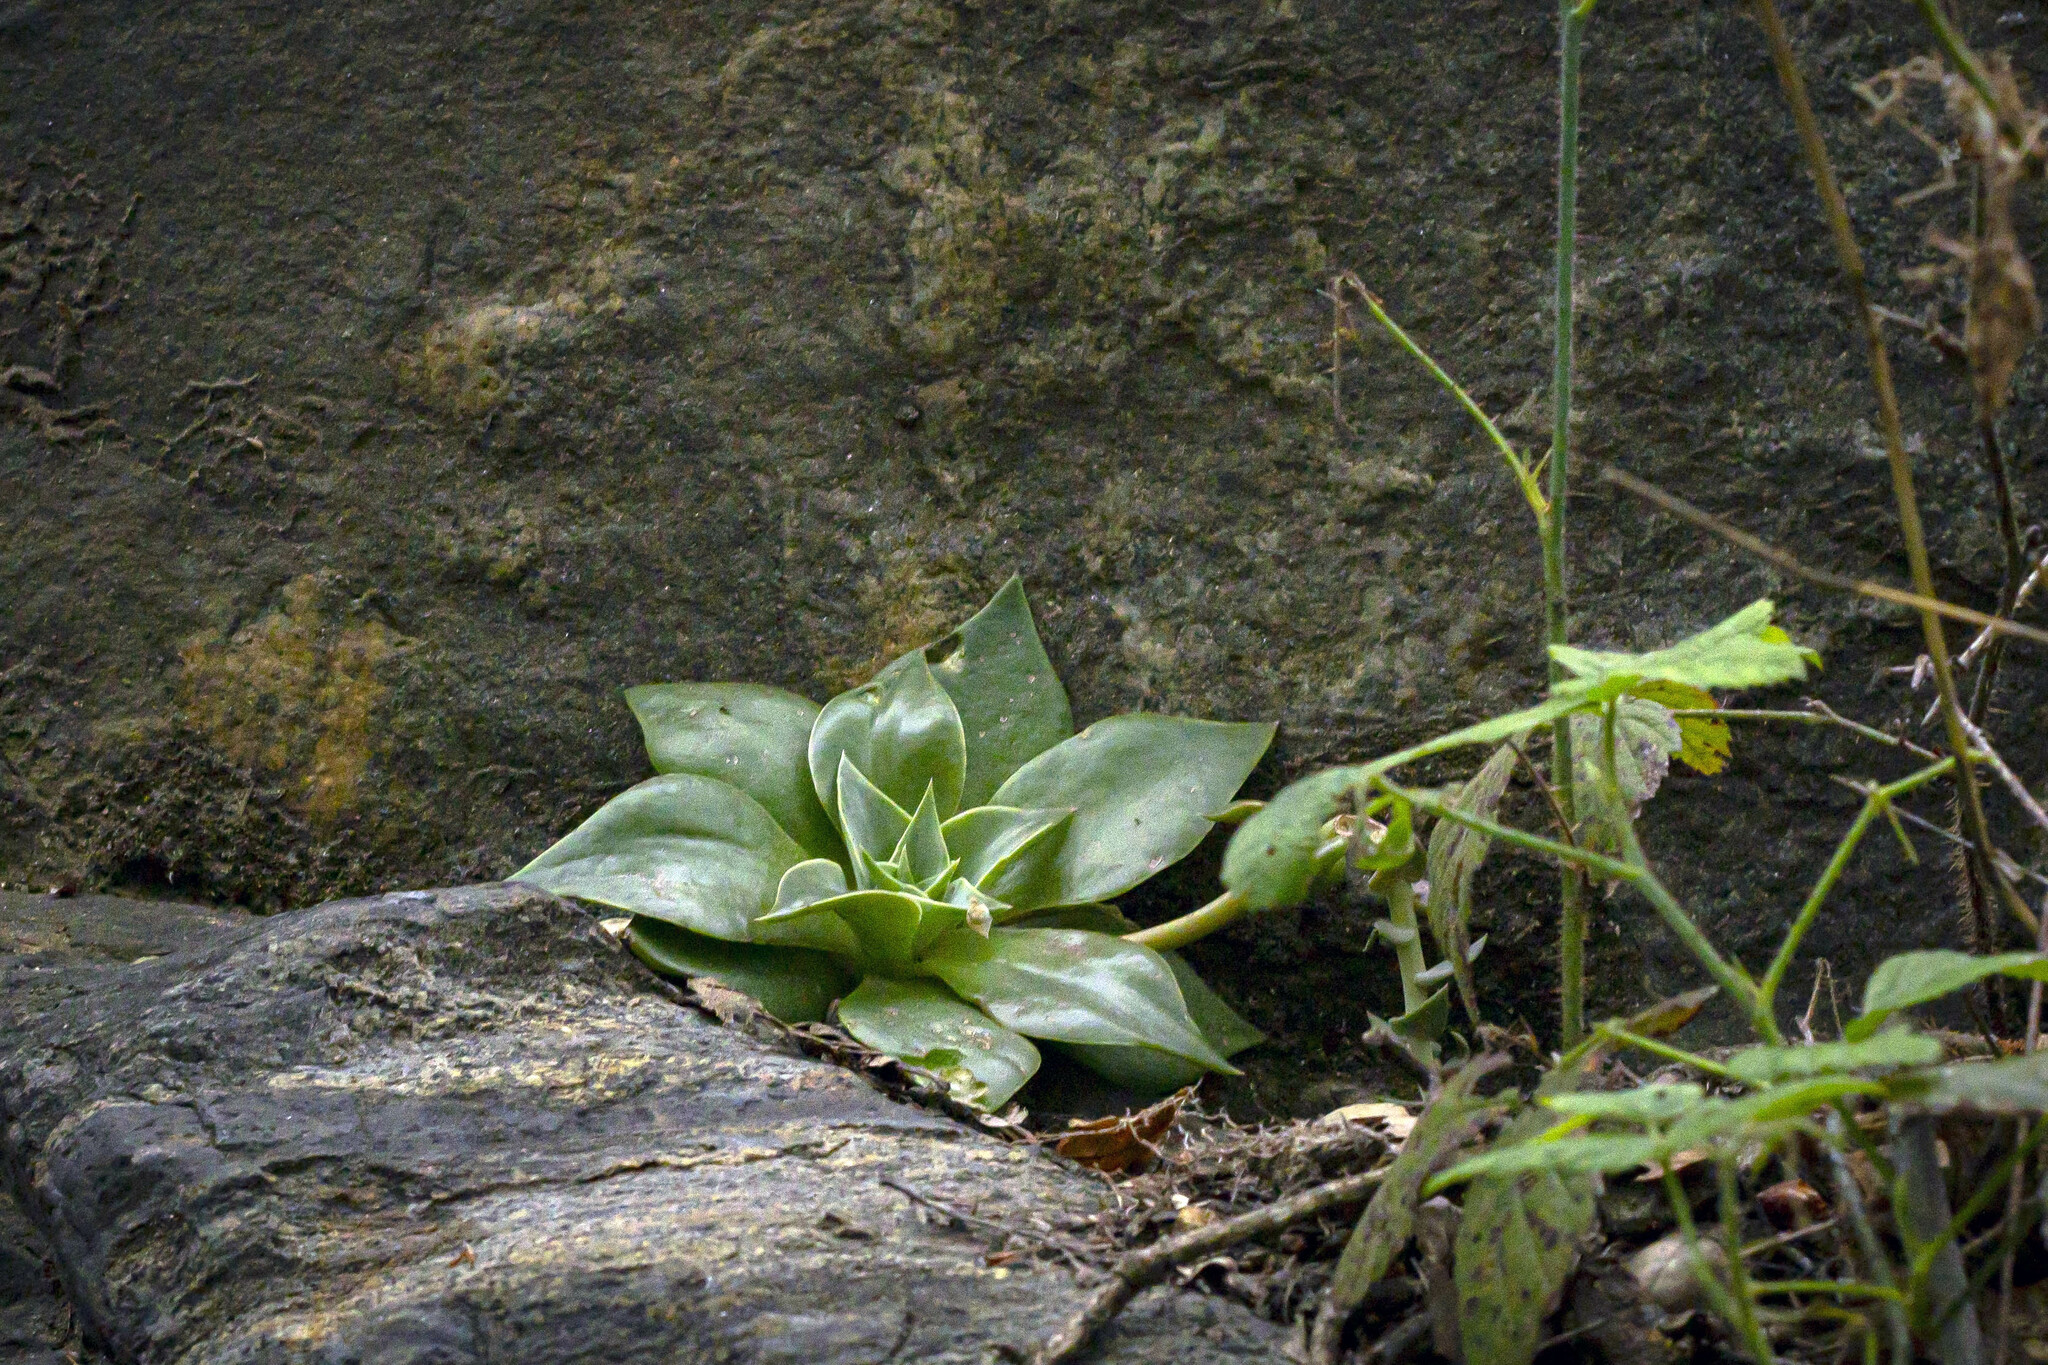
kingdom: Plantae
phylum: Tracheophyta
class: Magnoliopsida
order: Saxifragales
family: Crassulaceae
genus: Dudleya
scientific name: Dudleya cymosa
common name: Canyon dudleya
